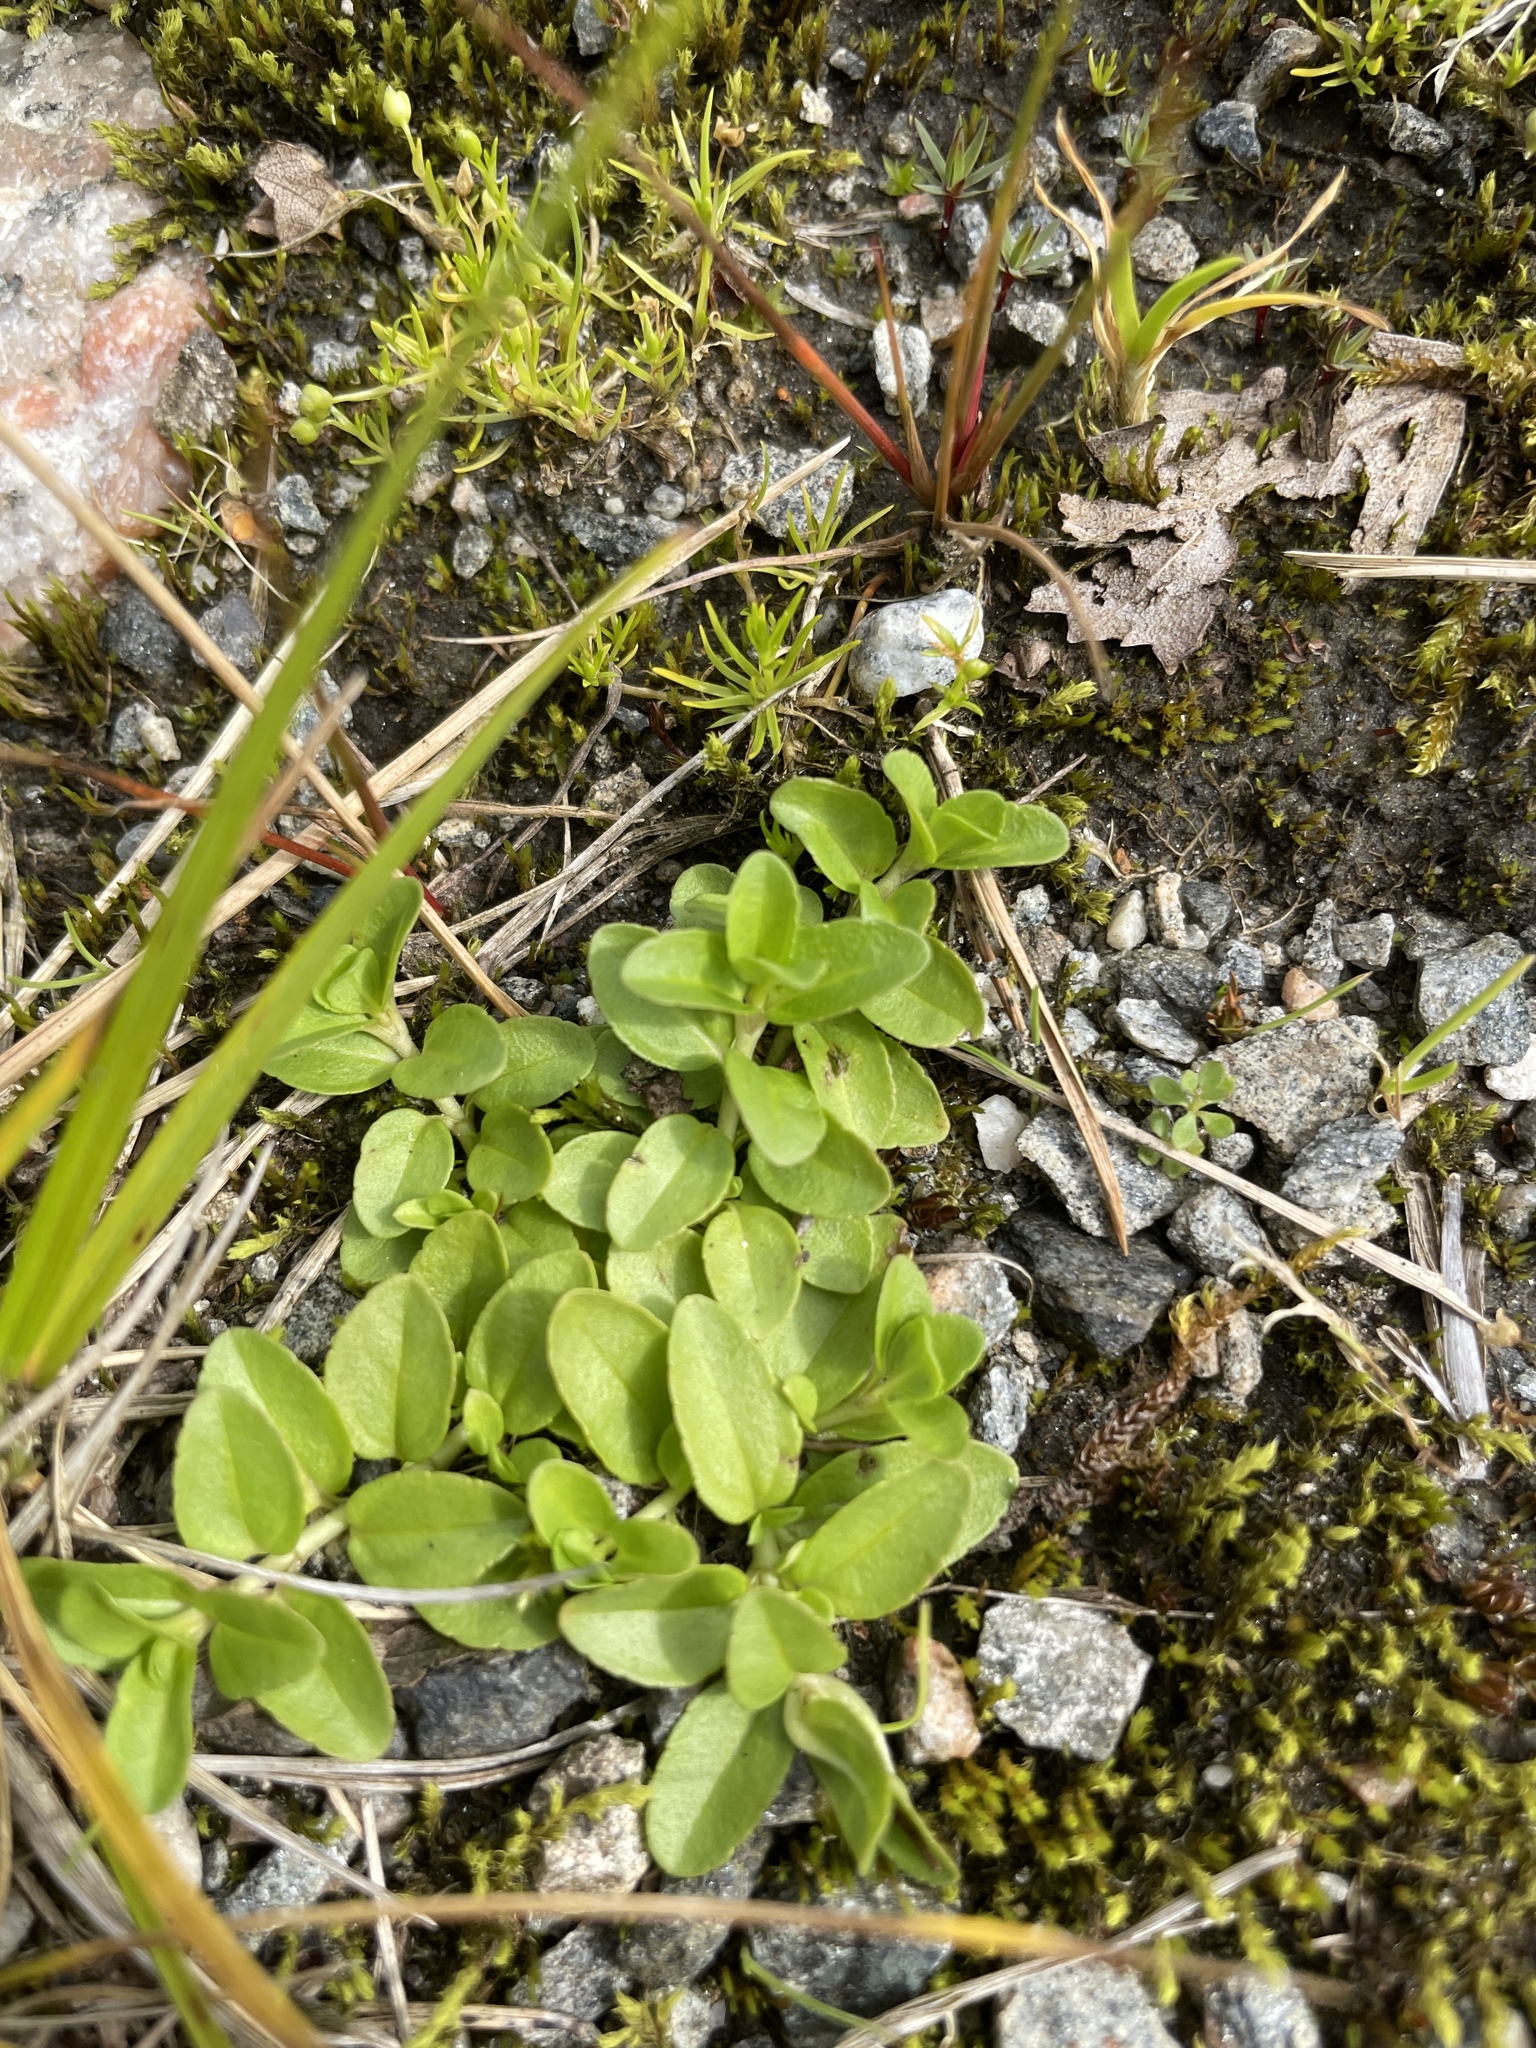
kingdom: Plantae
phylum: Tracheophyta
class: Magnoliopsida
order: Lamiales
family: Plantaginaceae
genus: Veronica
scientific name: Veronica officinalis
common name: Common speedwell
